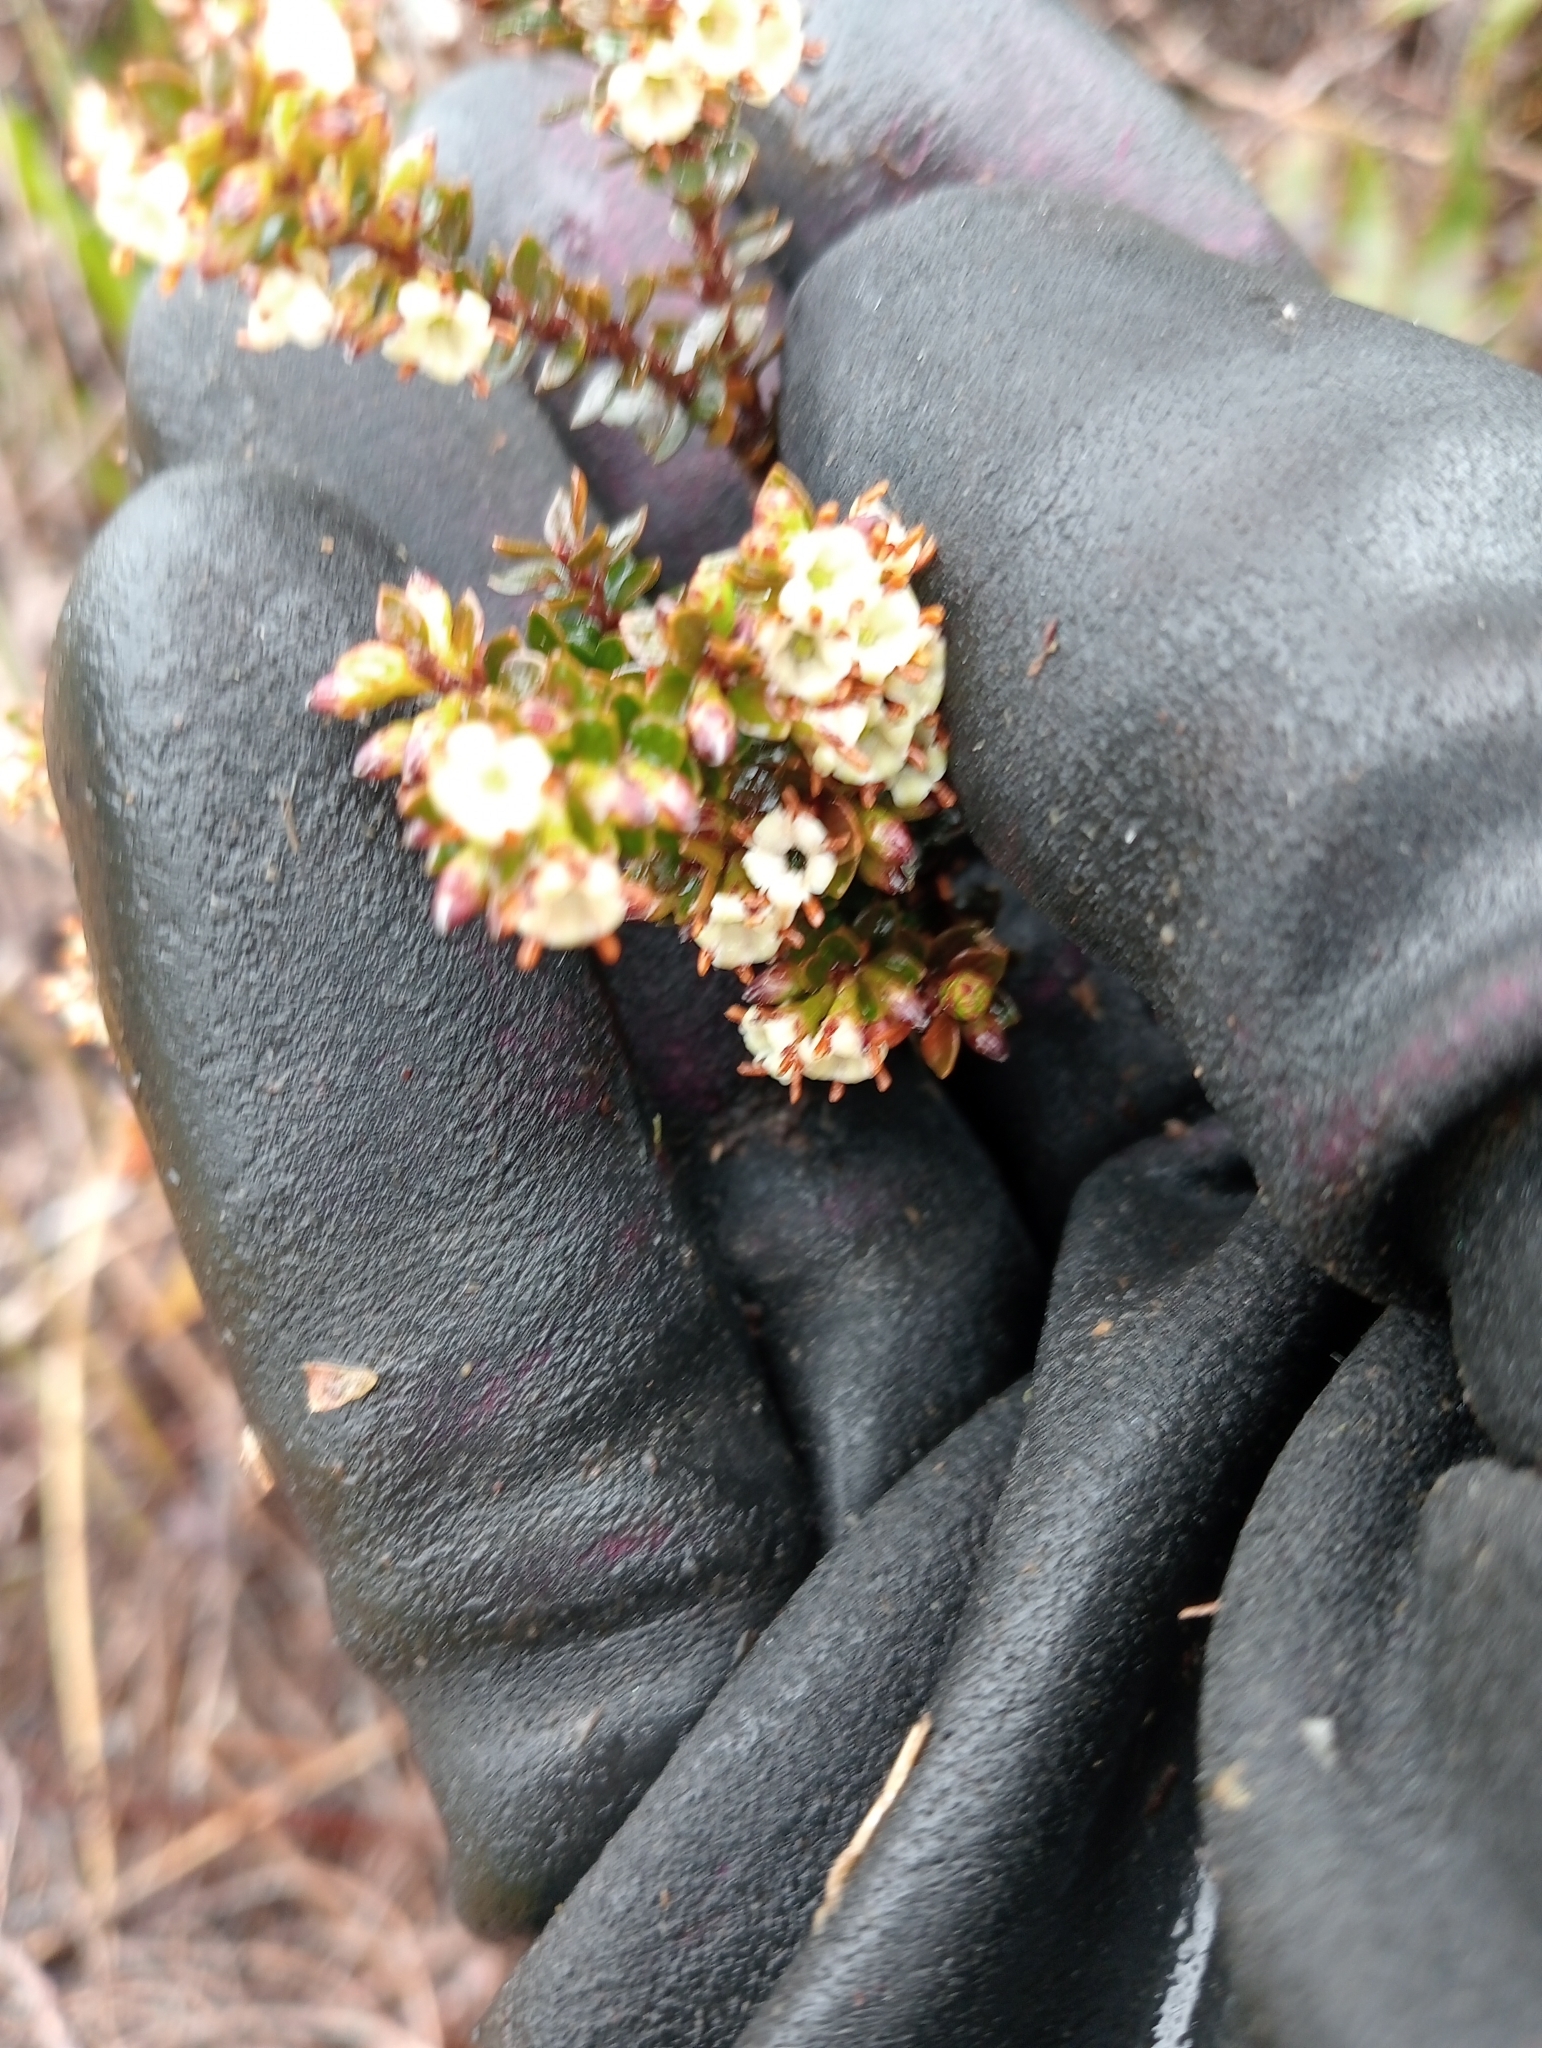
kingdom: Plantae
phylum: Tracheophyta
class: Magnoliopsida
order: Ericales
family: Ericaceae
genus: Epacris
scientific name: Epacris alpina
